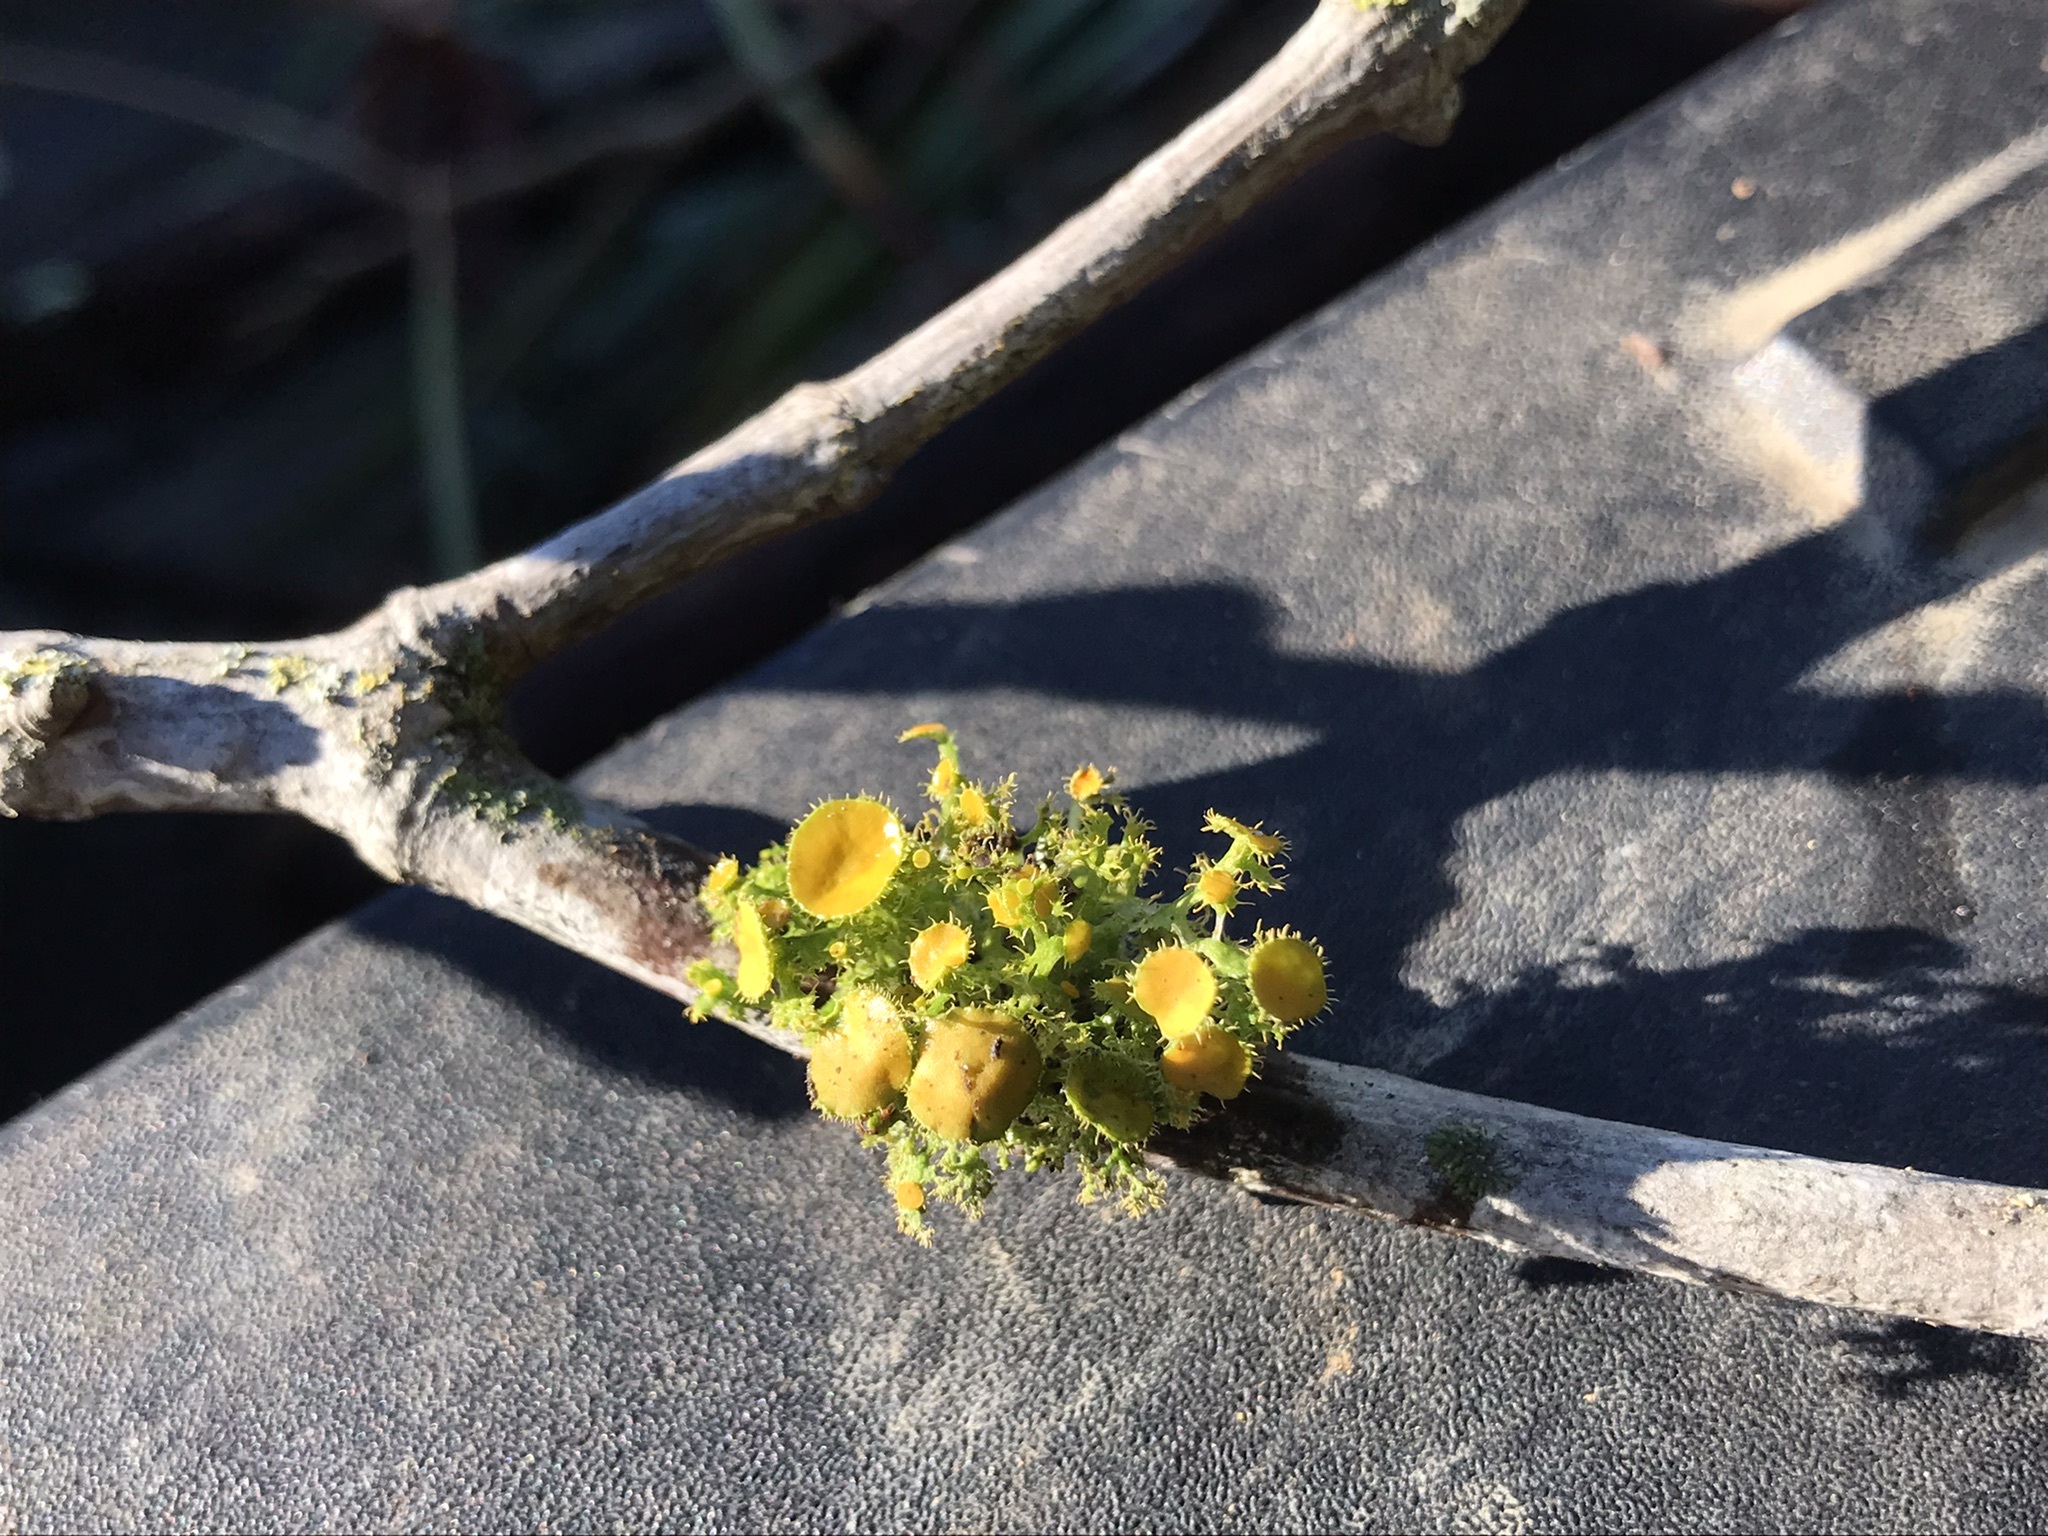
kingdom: Fungi
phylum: Ascomycota
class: Lecanoromycetes
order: Teloschistales
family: Teloschistaceae
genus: Niorma
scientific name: Niorma chrysophthalma
